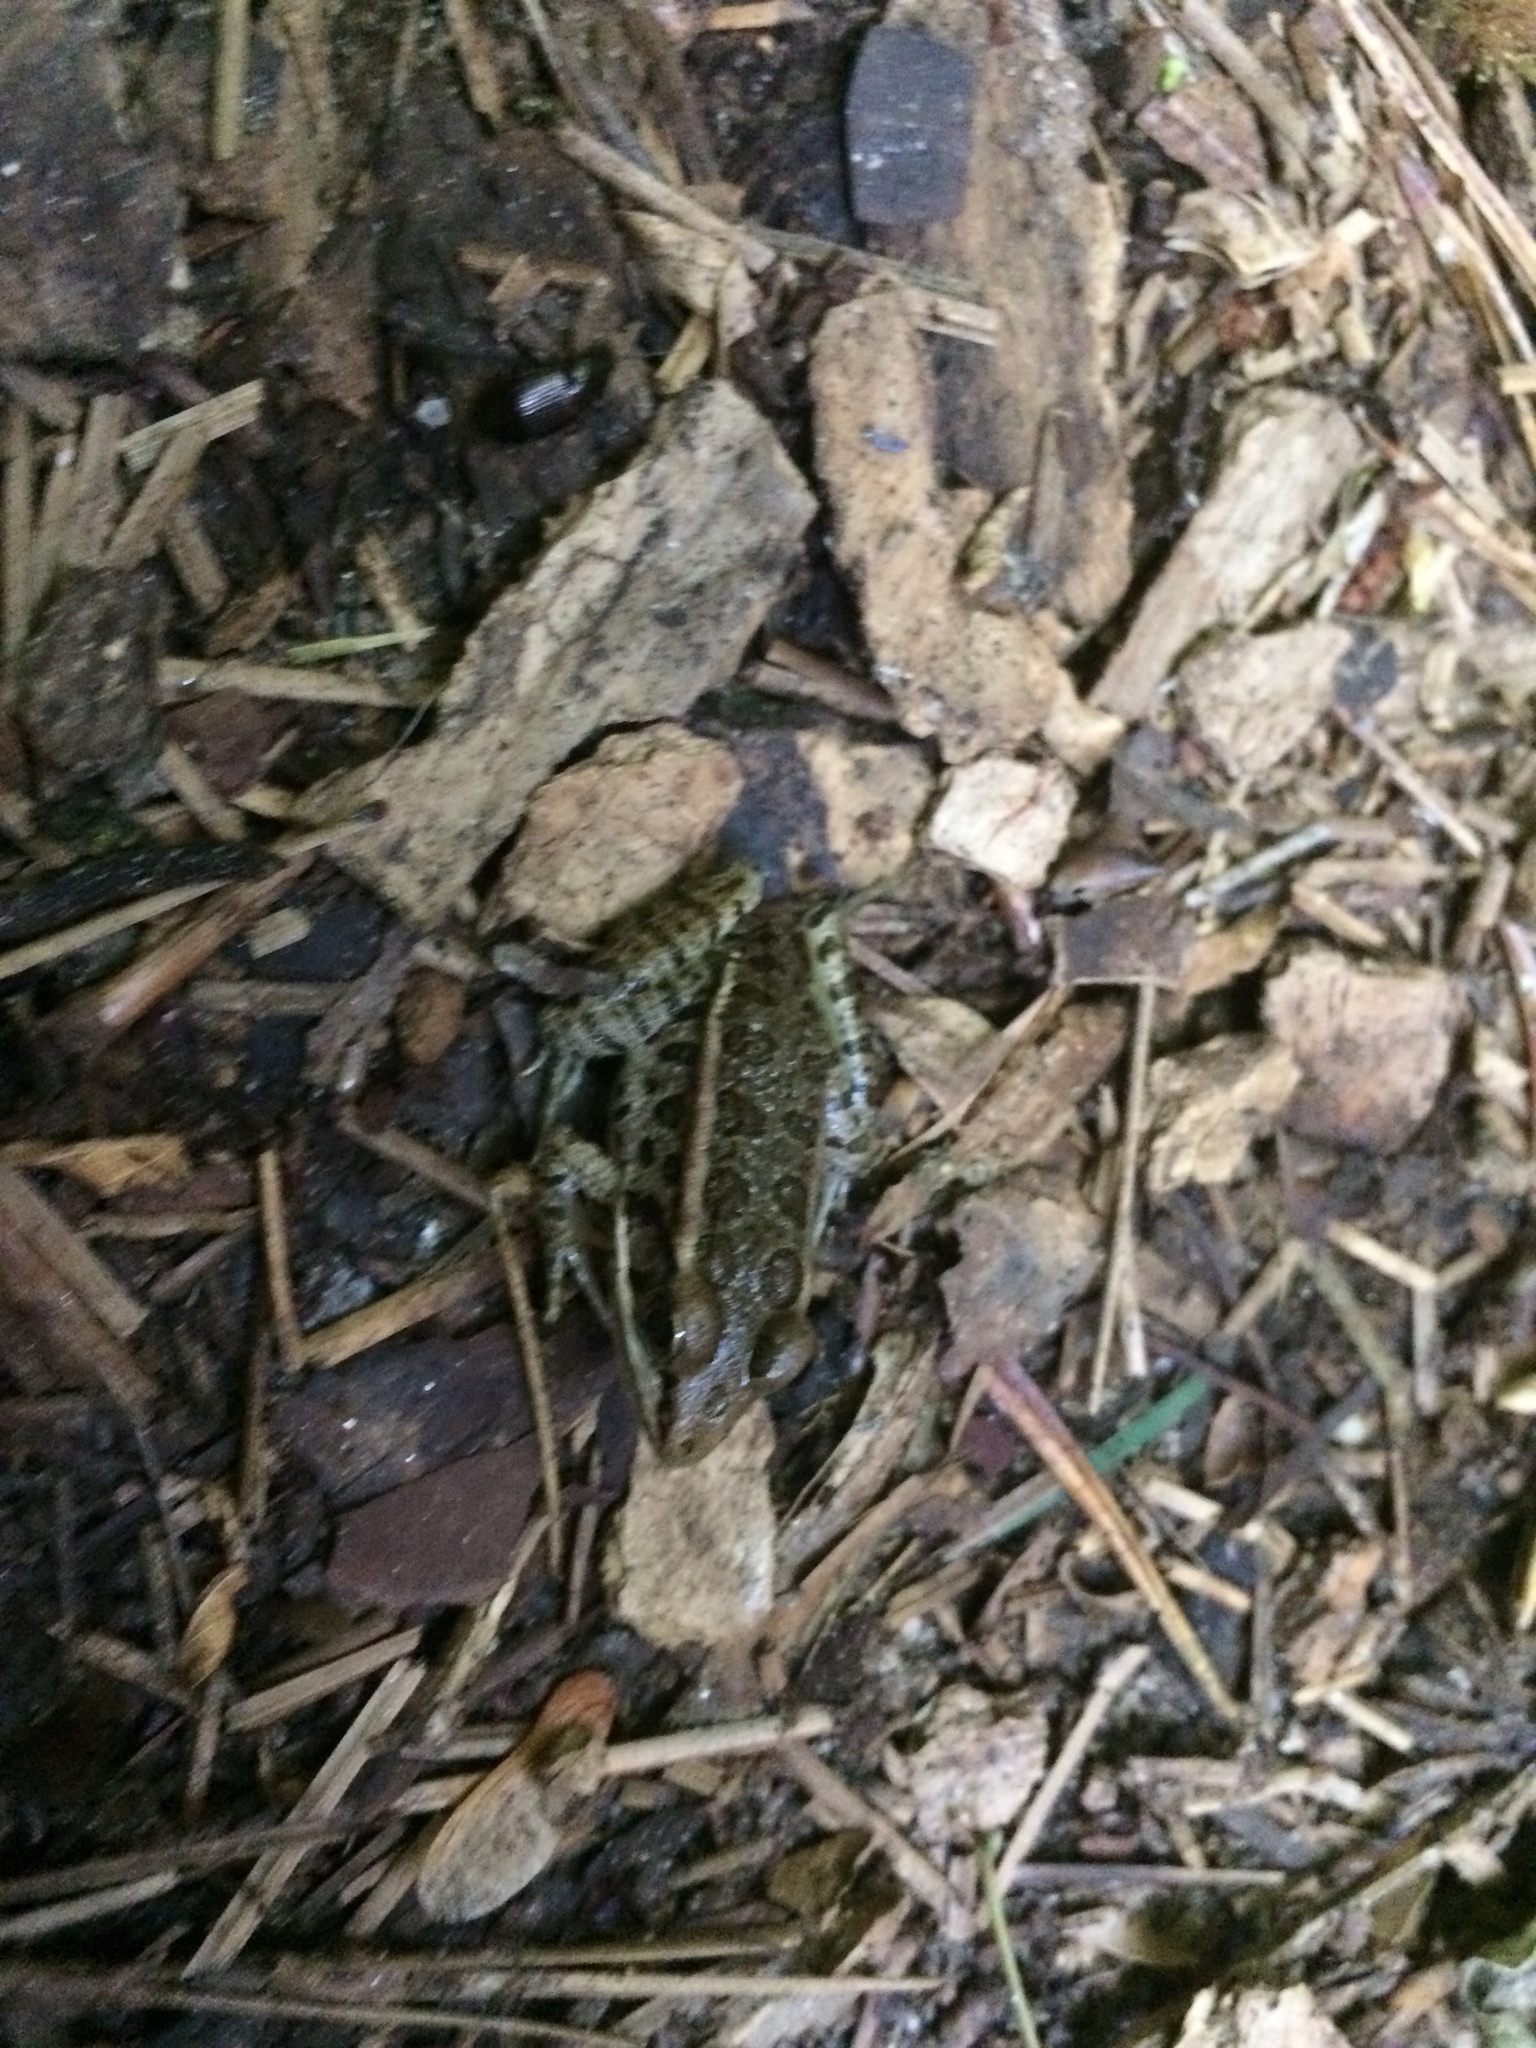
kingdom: Animalia
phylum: Chordata
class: Amphibia
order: Anura
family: Ranidae
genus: Lithobates
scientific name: Lithobates palustris
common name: Pickerel frog
